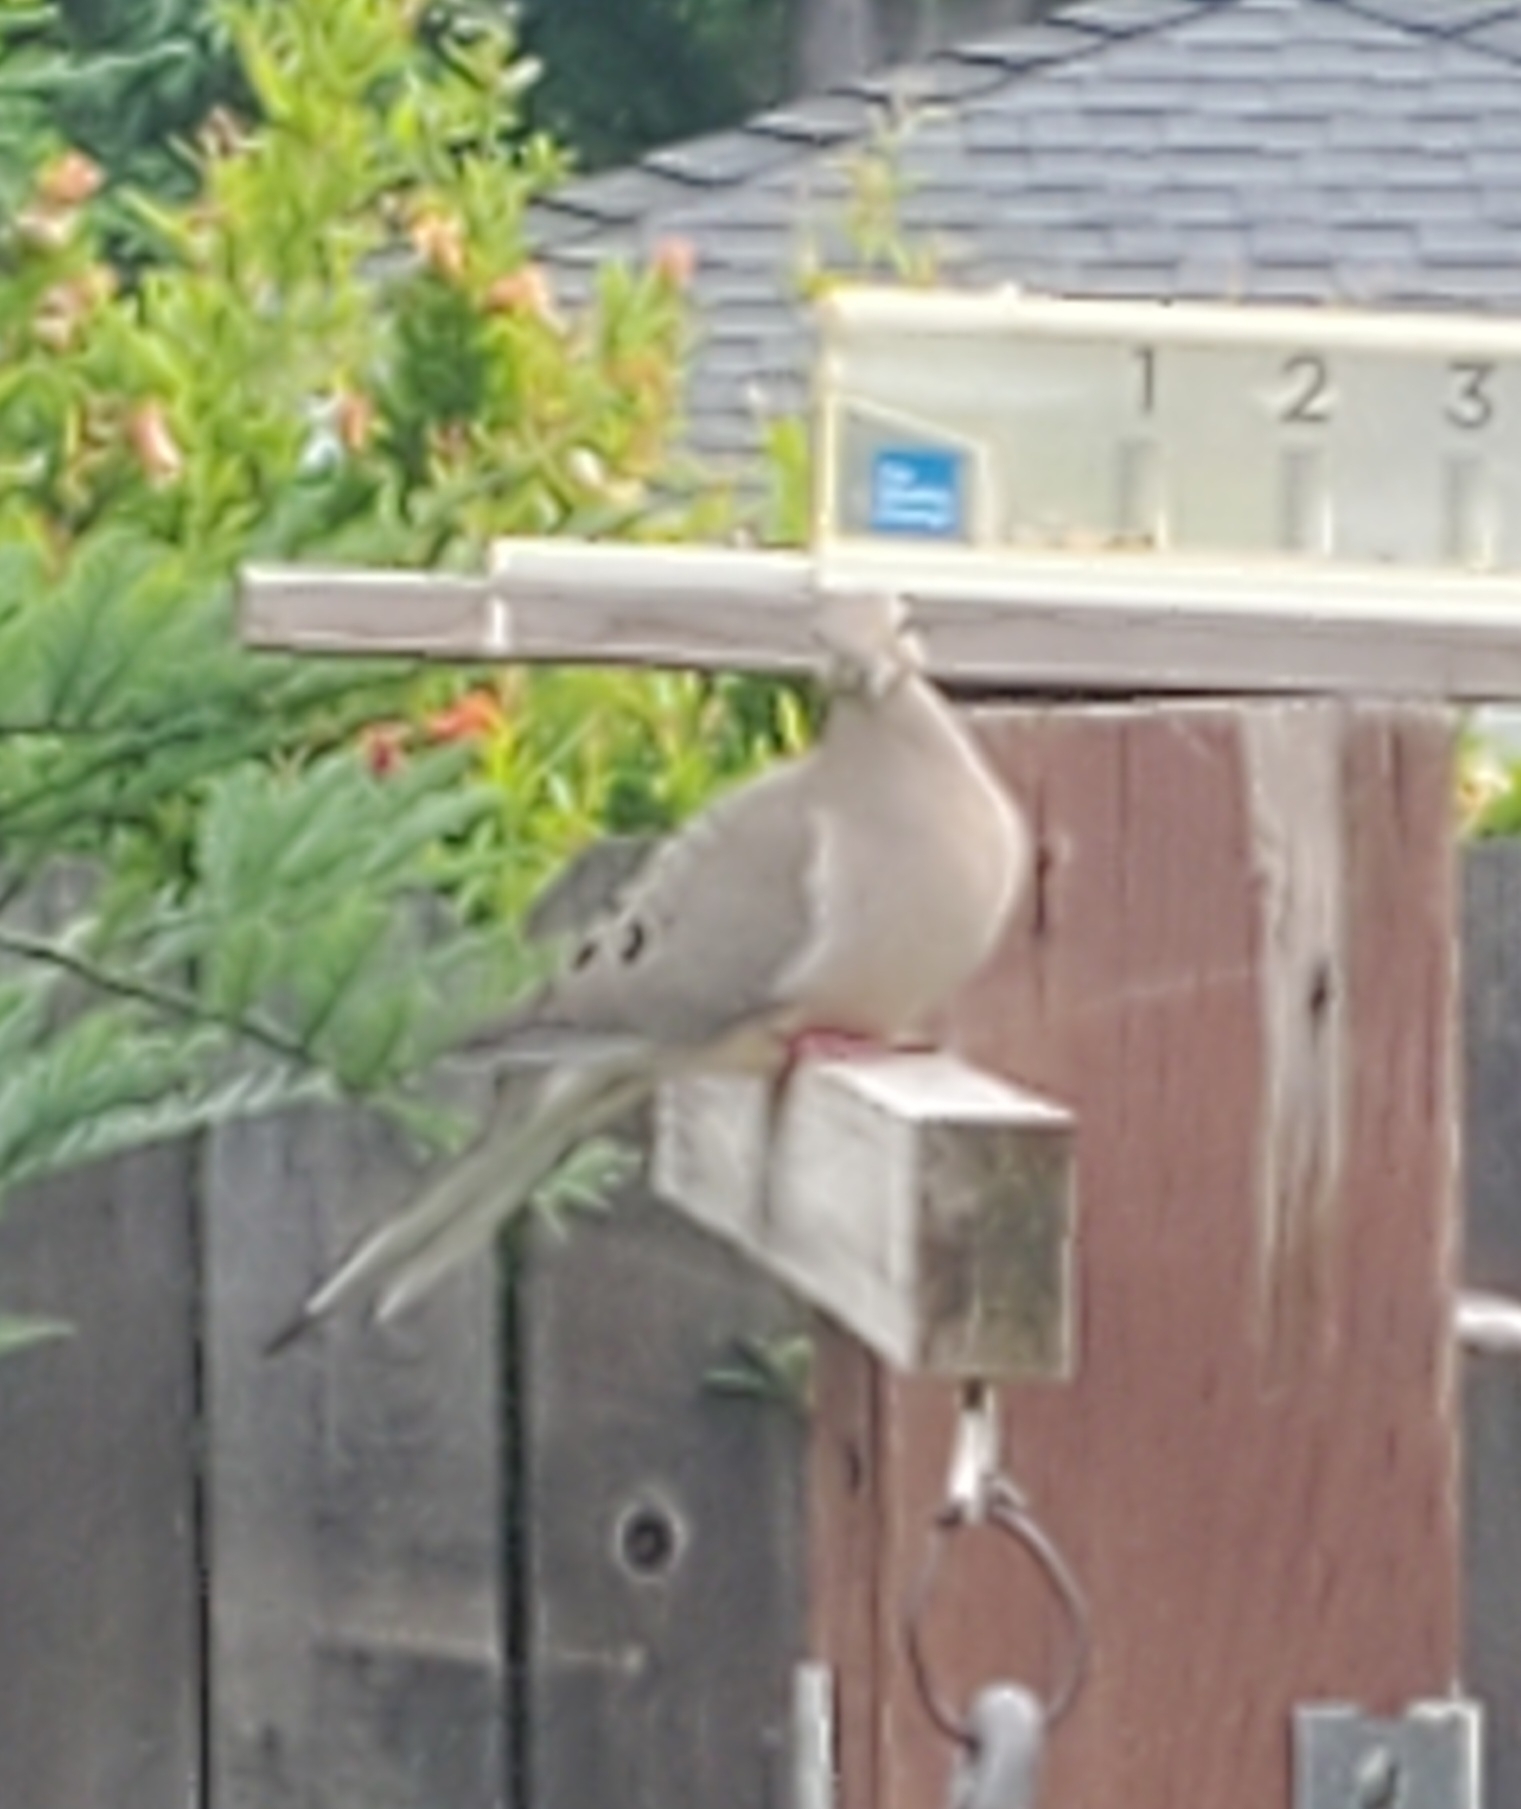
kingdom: Animalia
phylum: Chordata
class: Aves
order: Columbiformes
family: Columbidae
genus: Zenaida
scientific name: Zenaida macroura
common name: Mourning dove
